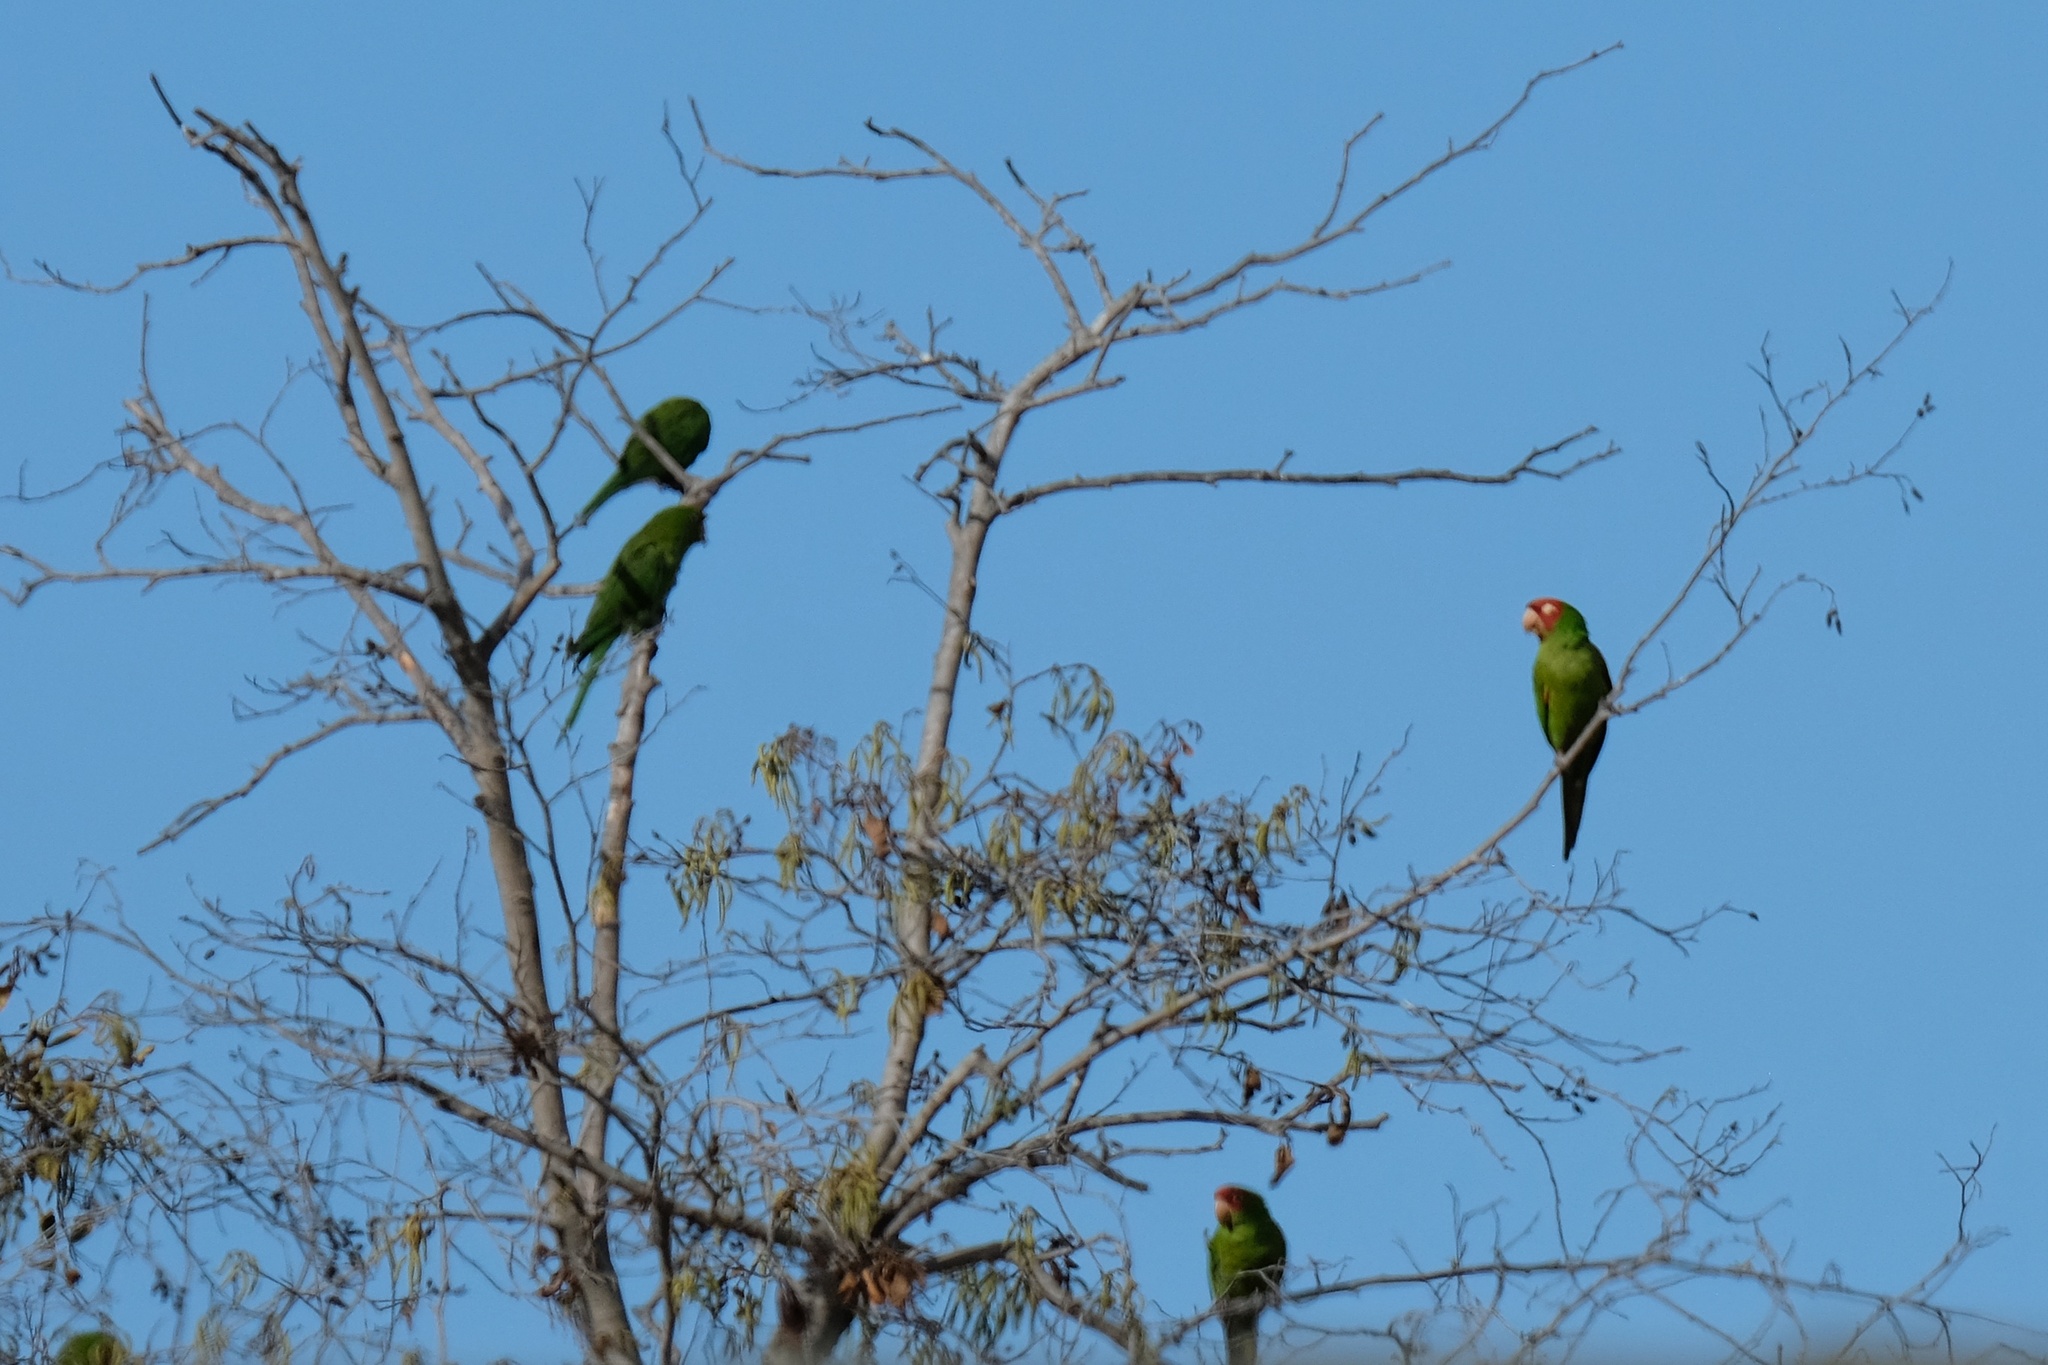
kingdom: Animalia
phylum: Chordata
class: Aves
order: Psittaciformes
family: Psittacidae
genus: Aratinga
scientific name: Aratinga erythrogenys
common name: Red-masked parakeet
